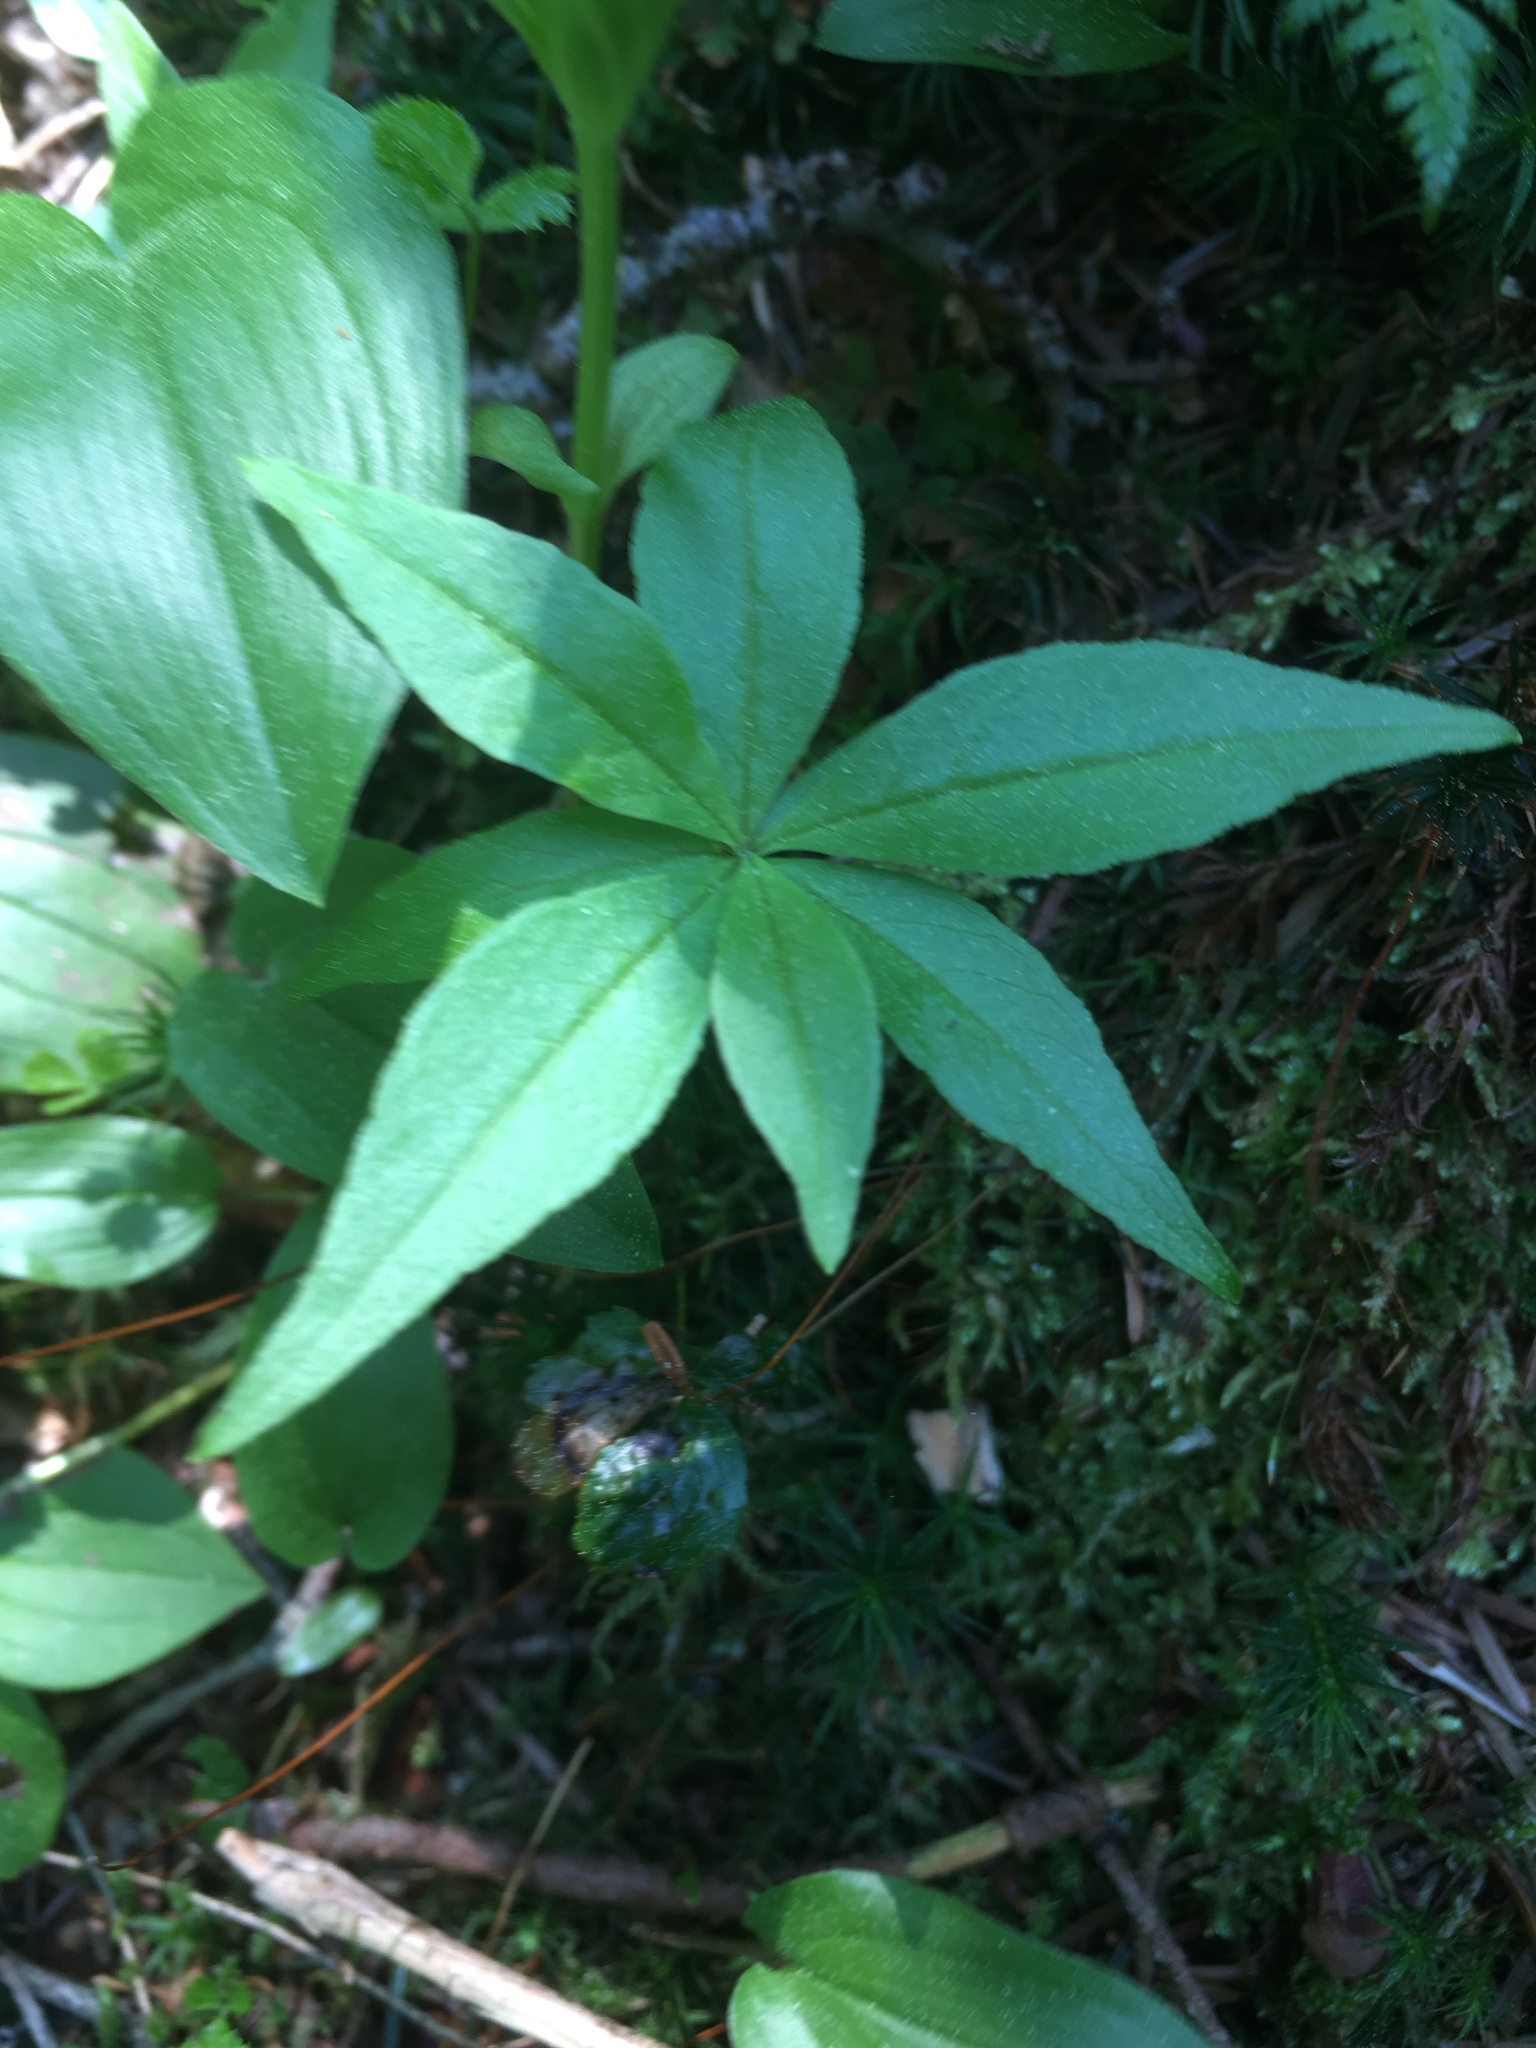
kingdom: Plantae
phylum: Tracheophyta
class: Magnoliopsida
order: Ericales
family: Primulaceae
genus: Lysimachia
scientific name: Lysimachia borealis
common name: American starflower
